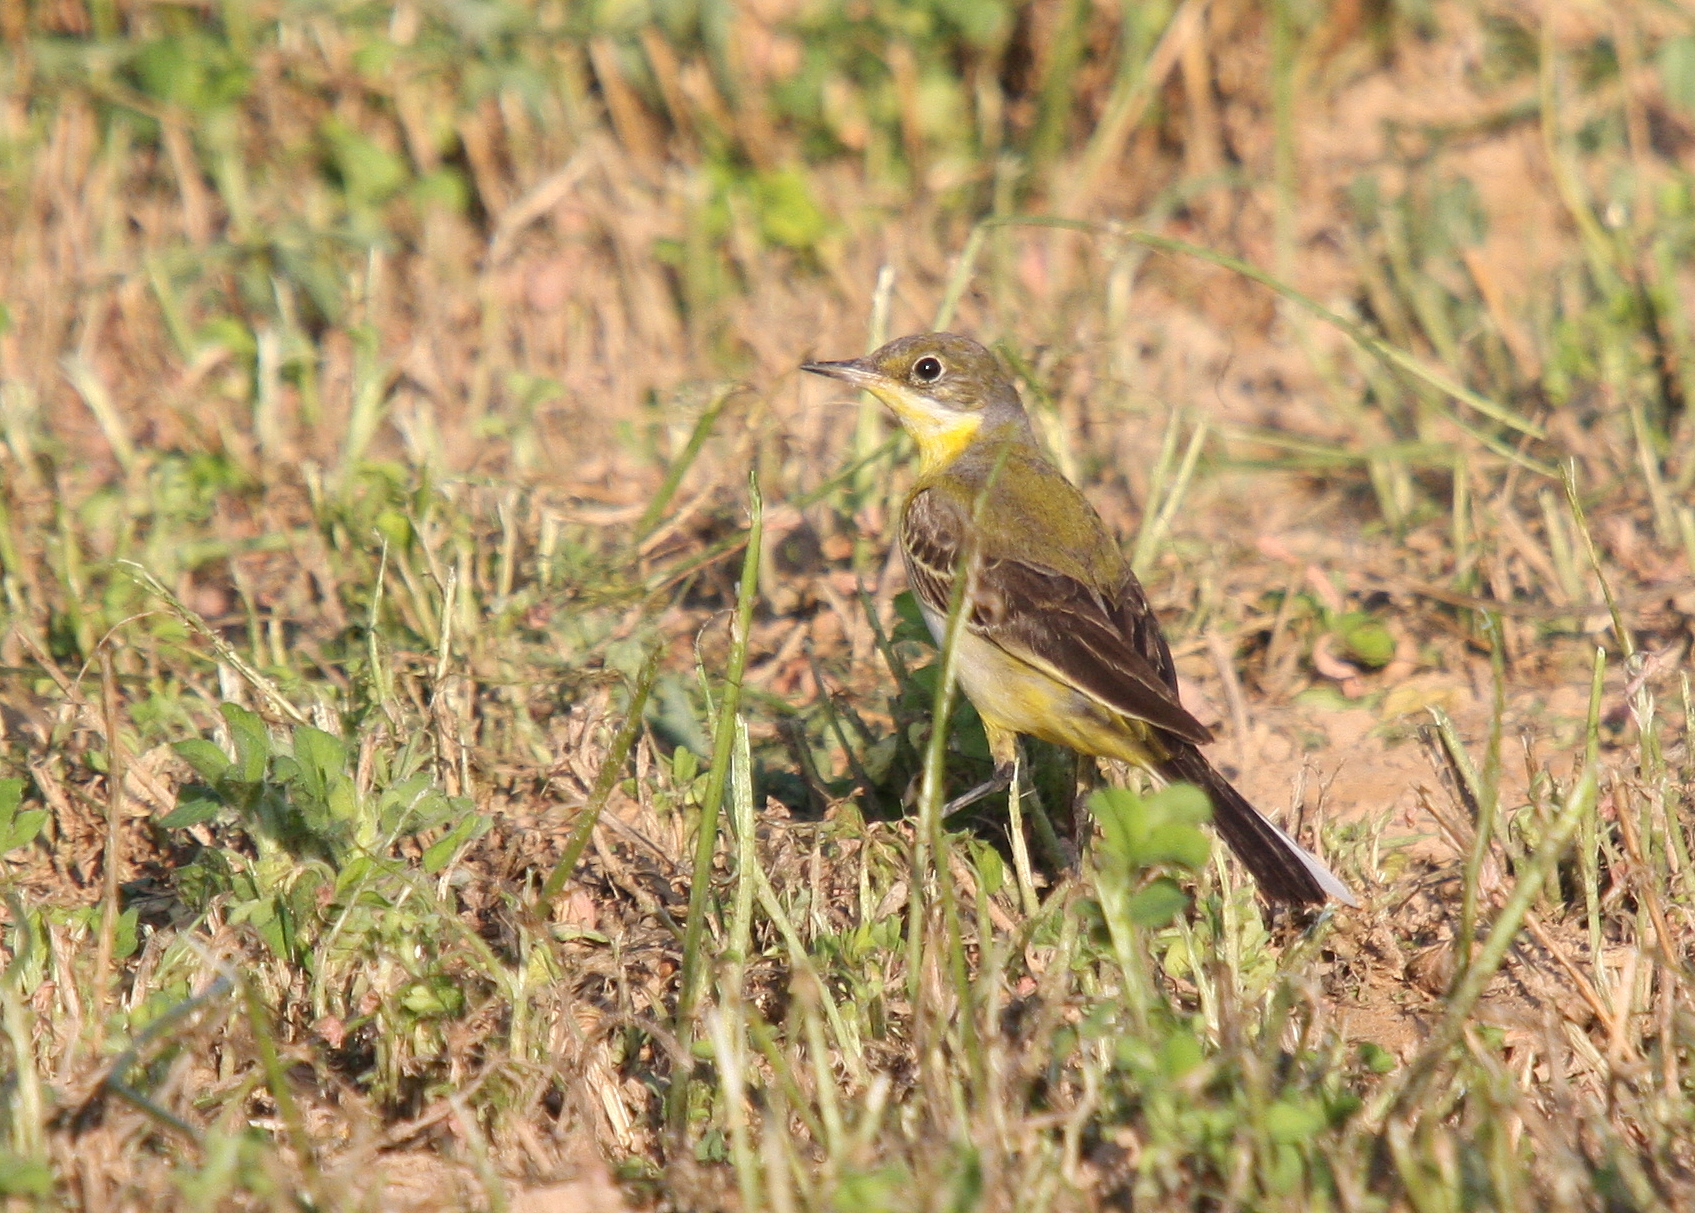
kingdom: Animalia
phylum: Chordata
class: Aves
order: Passeriformes
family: Motacillidae
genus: Motacilla
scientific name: Motacilla flava
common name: Western yellow wagtail
